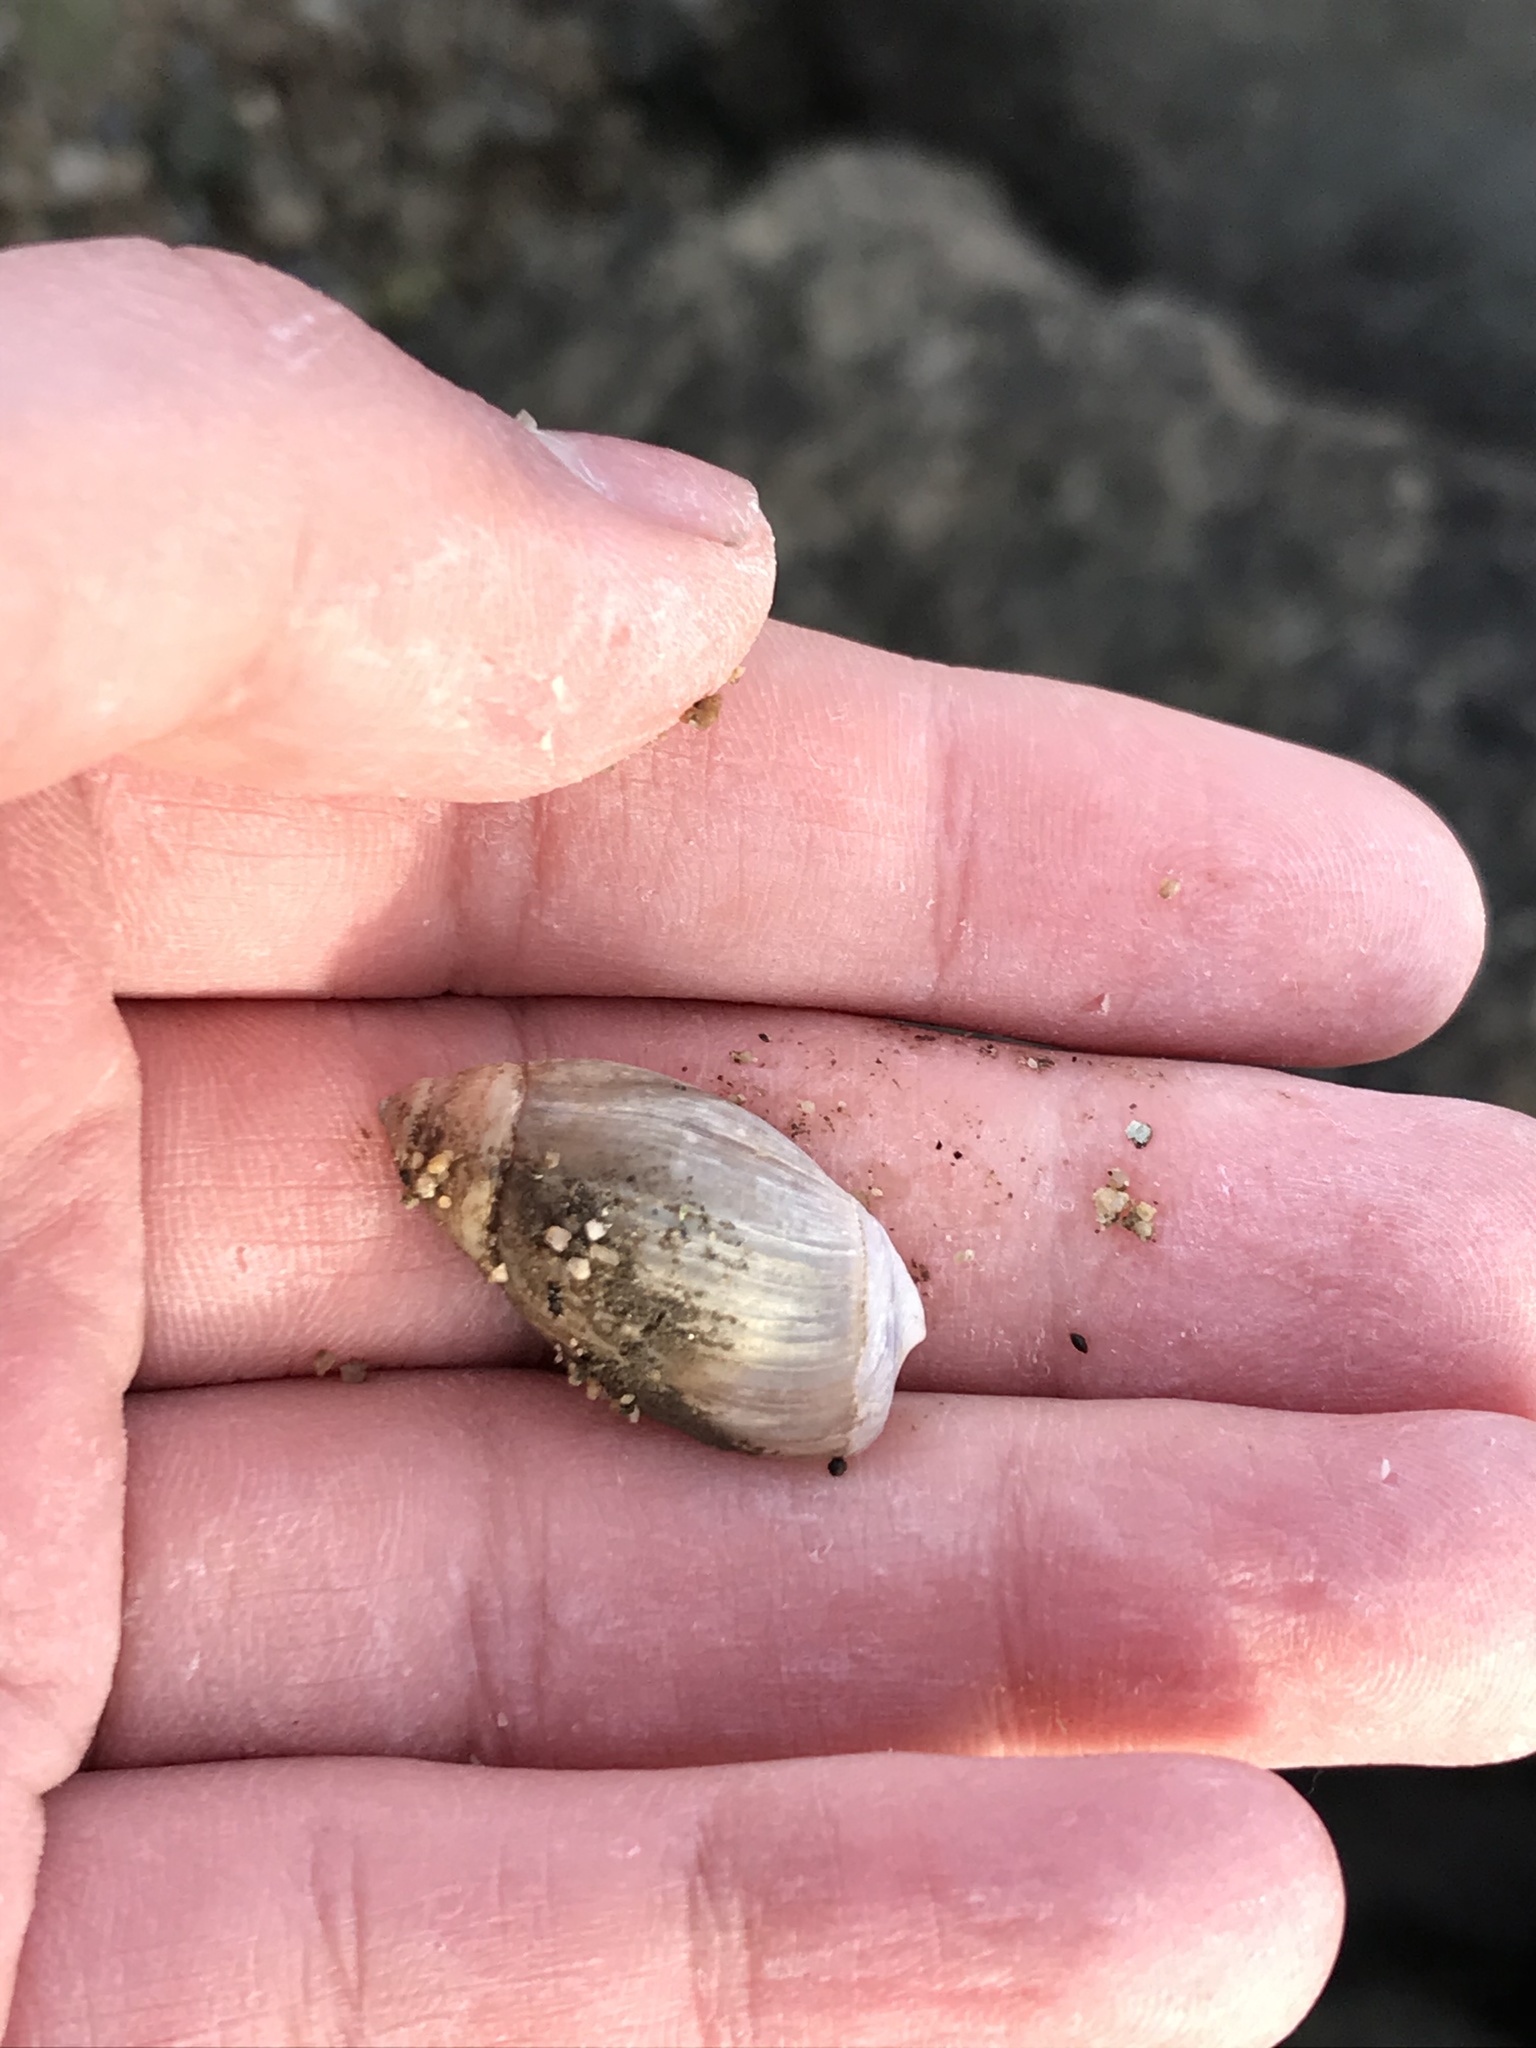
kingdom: Animalia
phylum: Mollusca
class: Gastropoda
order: Neogastropoda
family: Olividae
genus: Callianax
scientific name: Callianax biplicata
